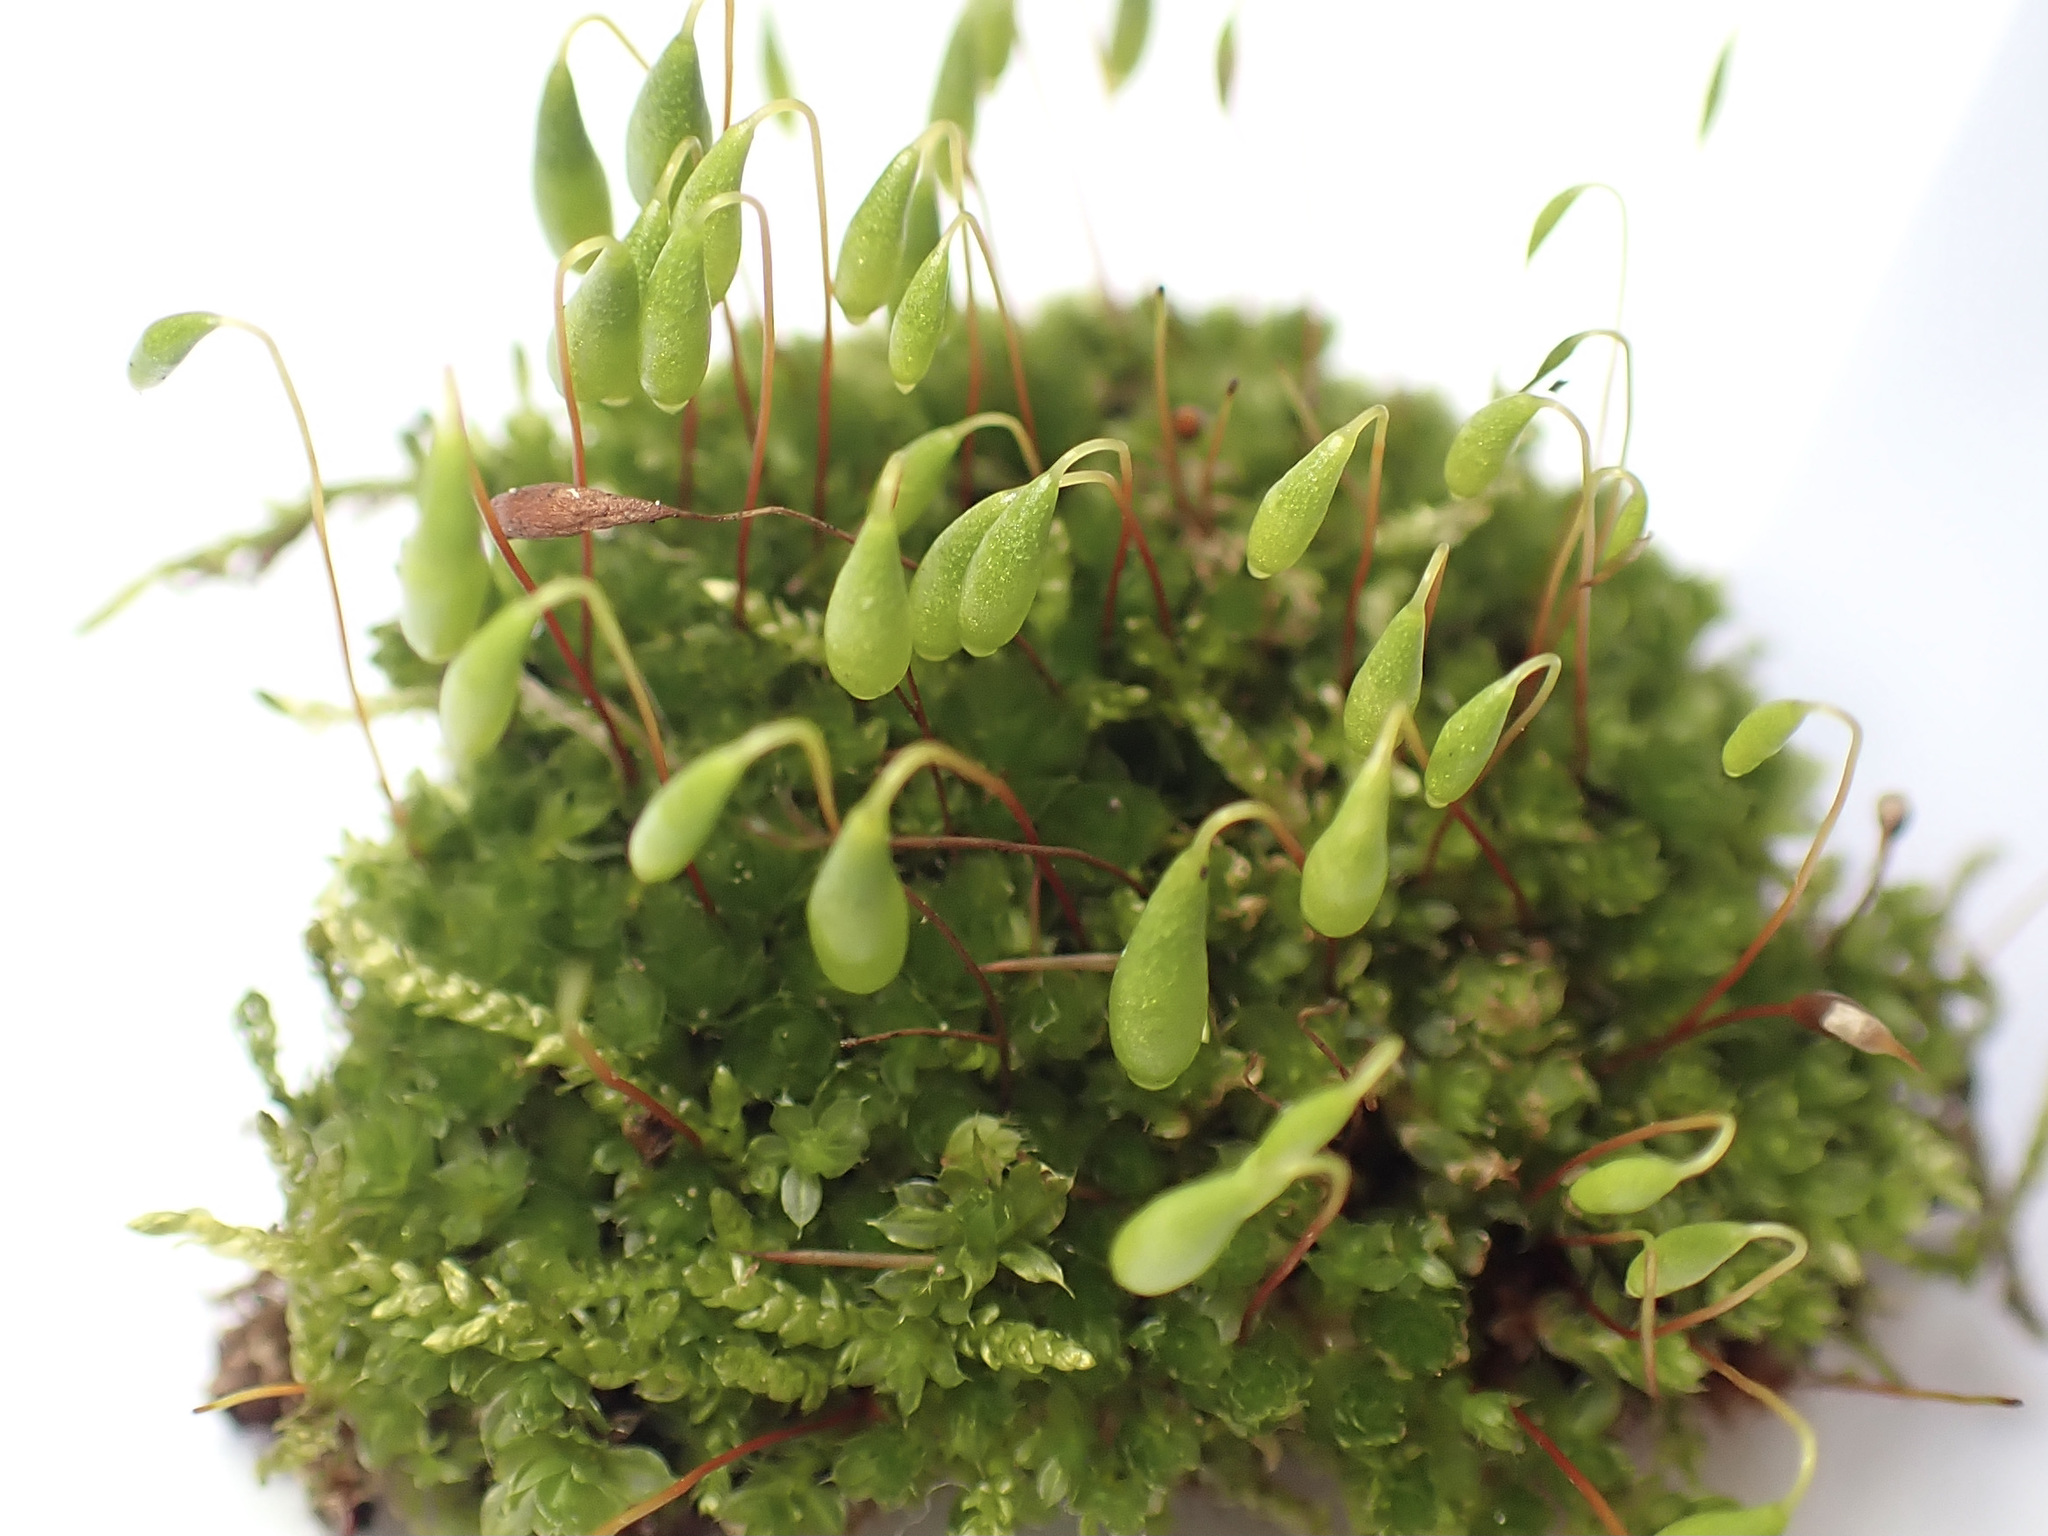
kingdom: Plantae
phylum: Bryophyta
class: Bryopsida
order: Bryales
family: Bryaceae
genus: Rosulabryum
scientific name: Rosulabryum capillare
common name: Capillary thread-moss
